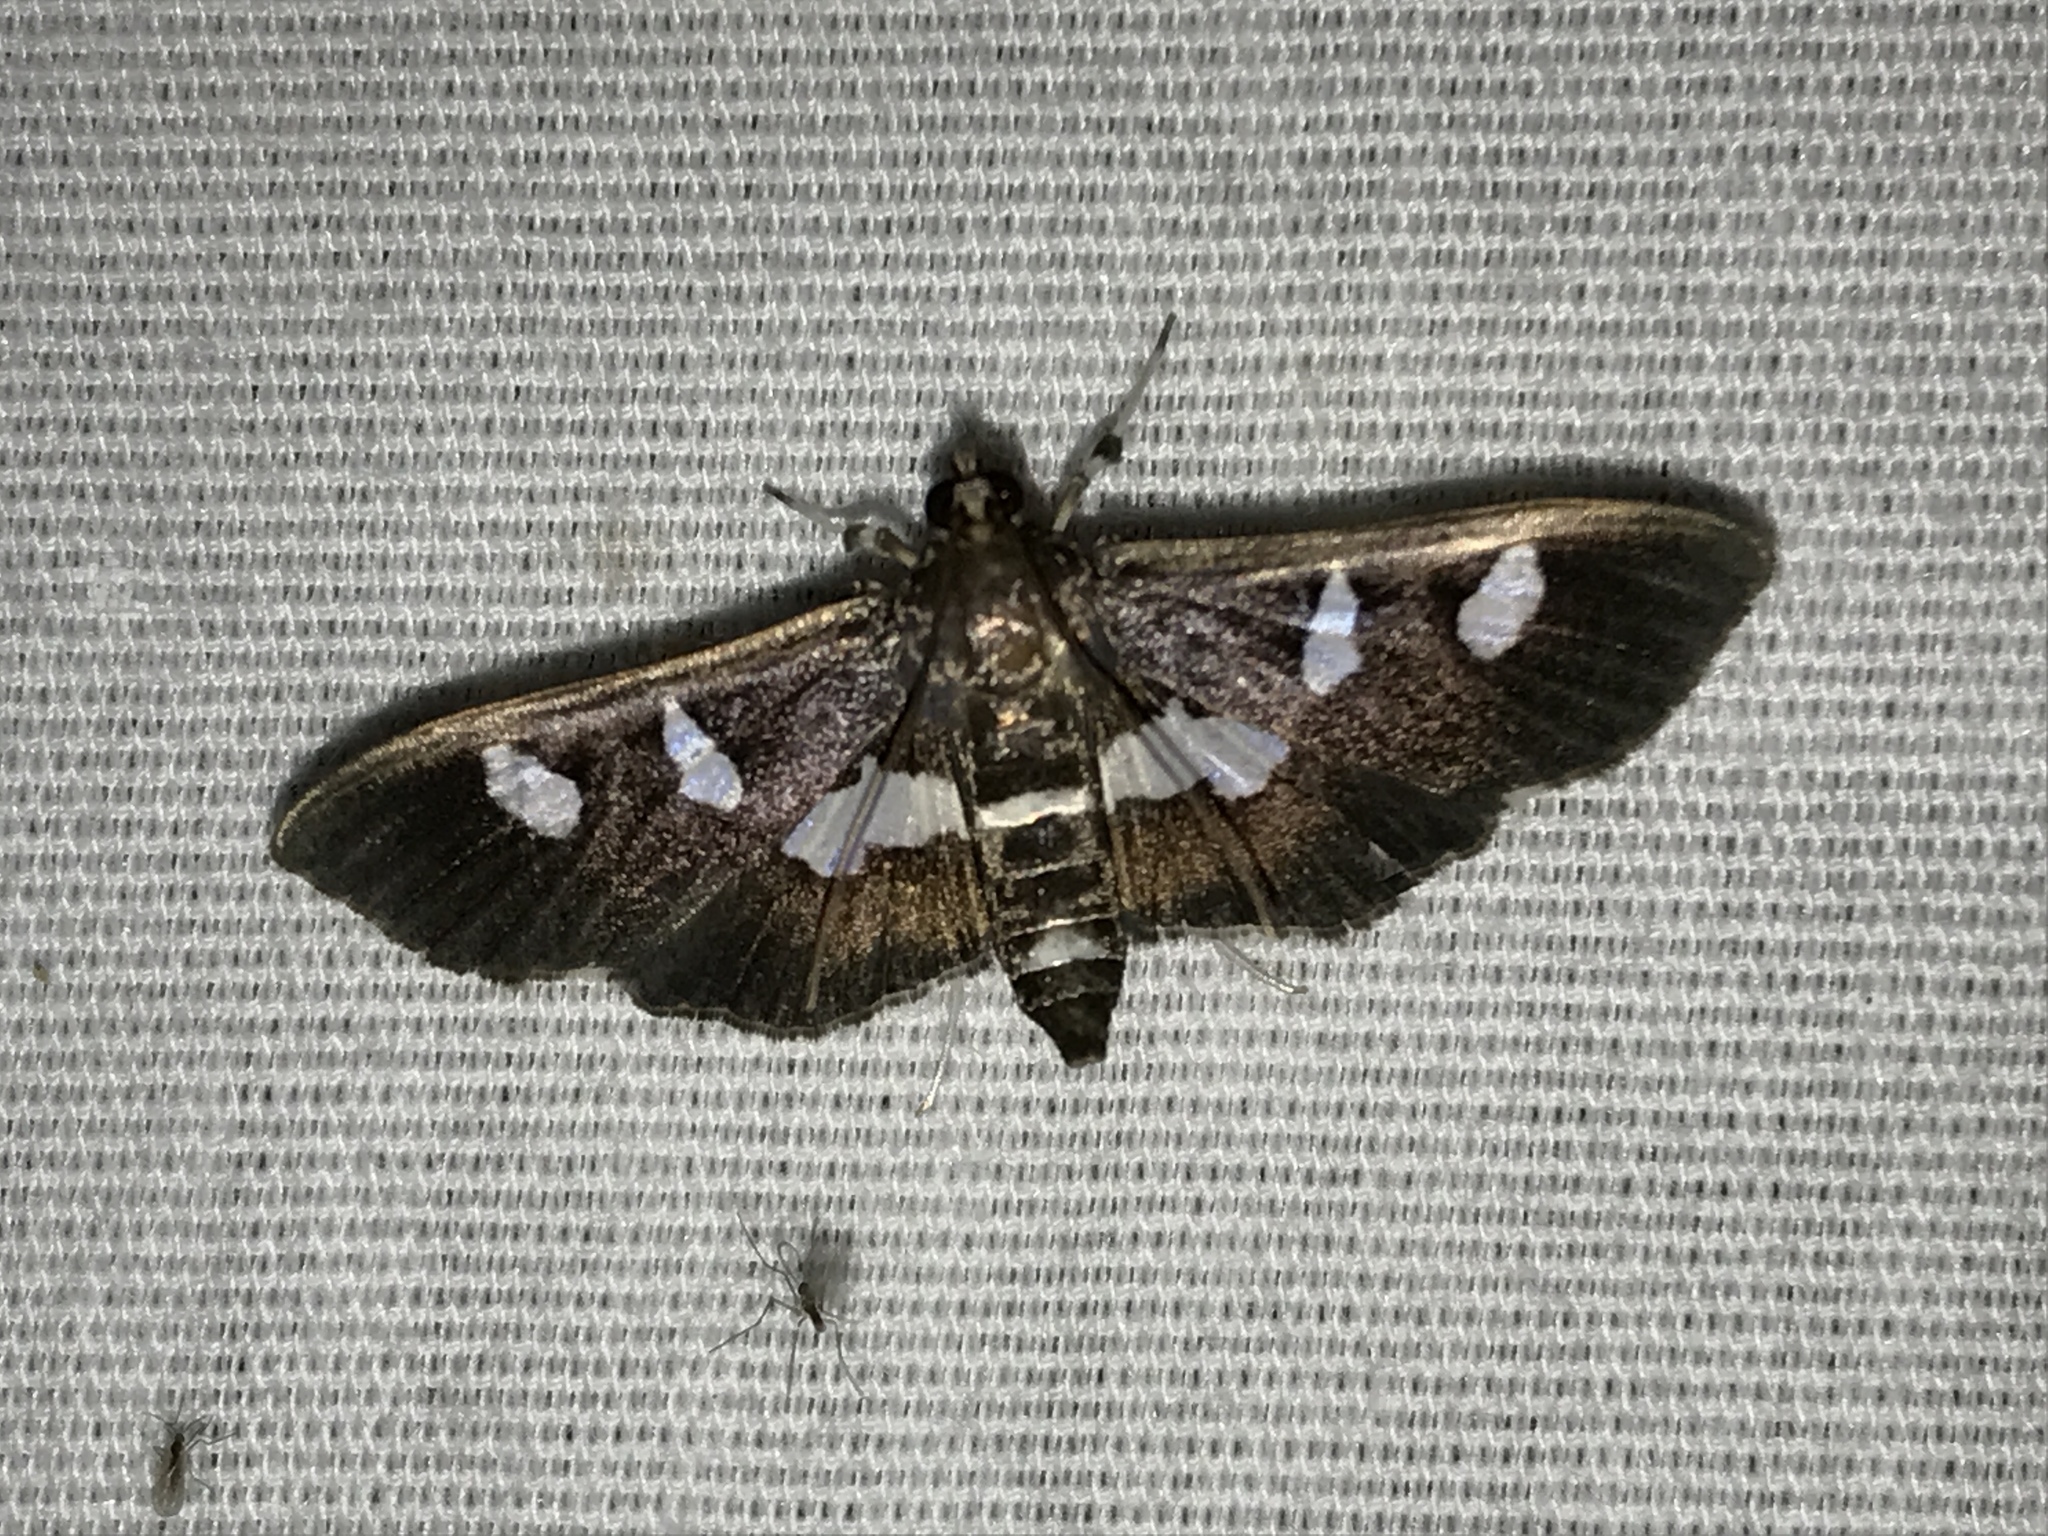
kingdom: Animalia
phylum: Arthropoda
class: Insecta
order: Lepidoptera
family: Crambidae
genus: Desmia
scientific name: Desmia
